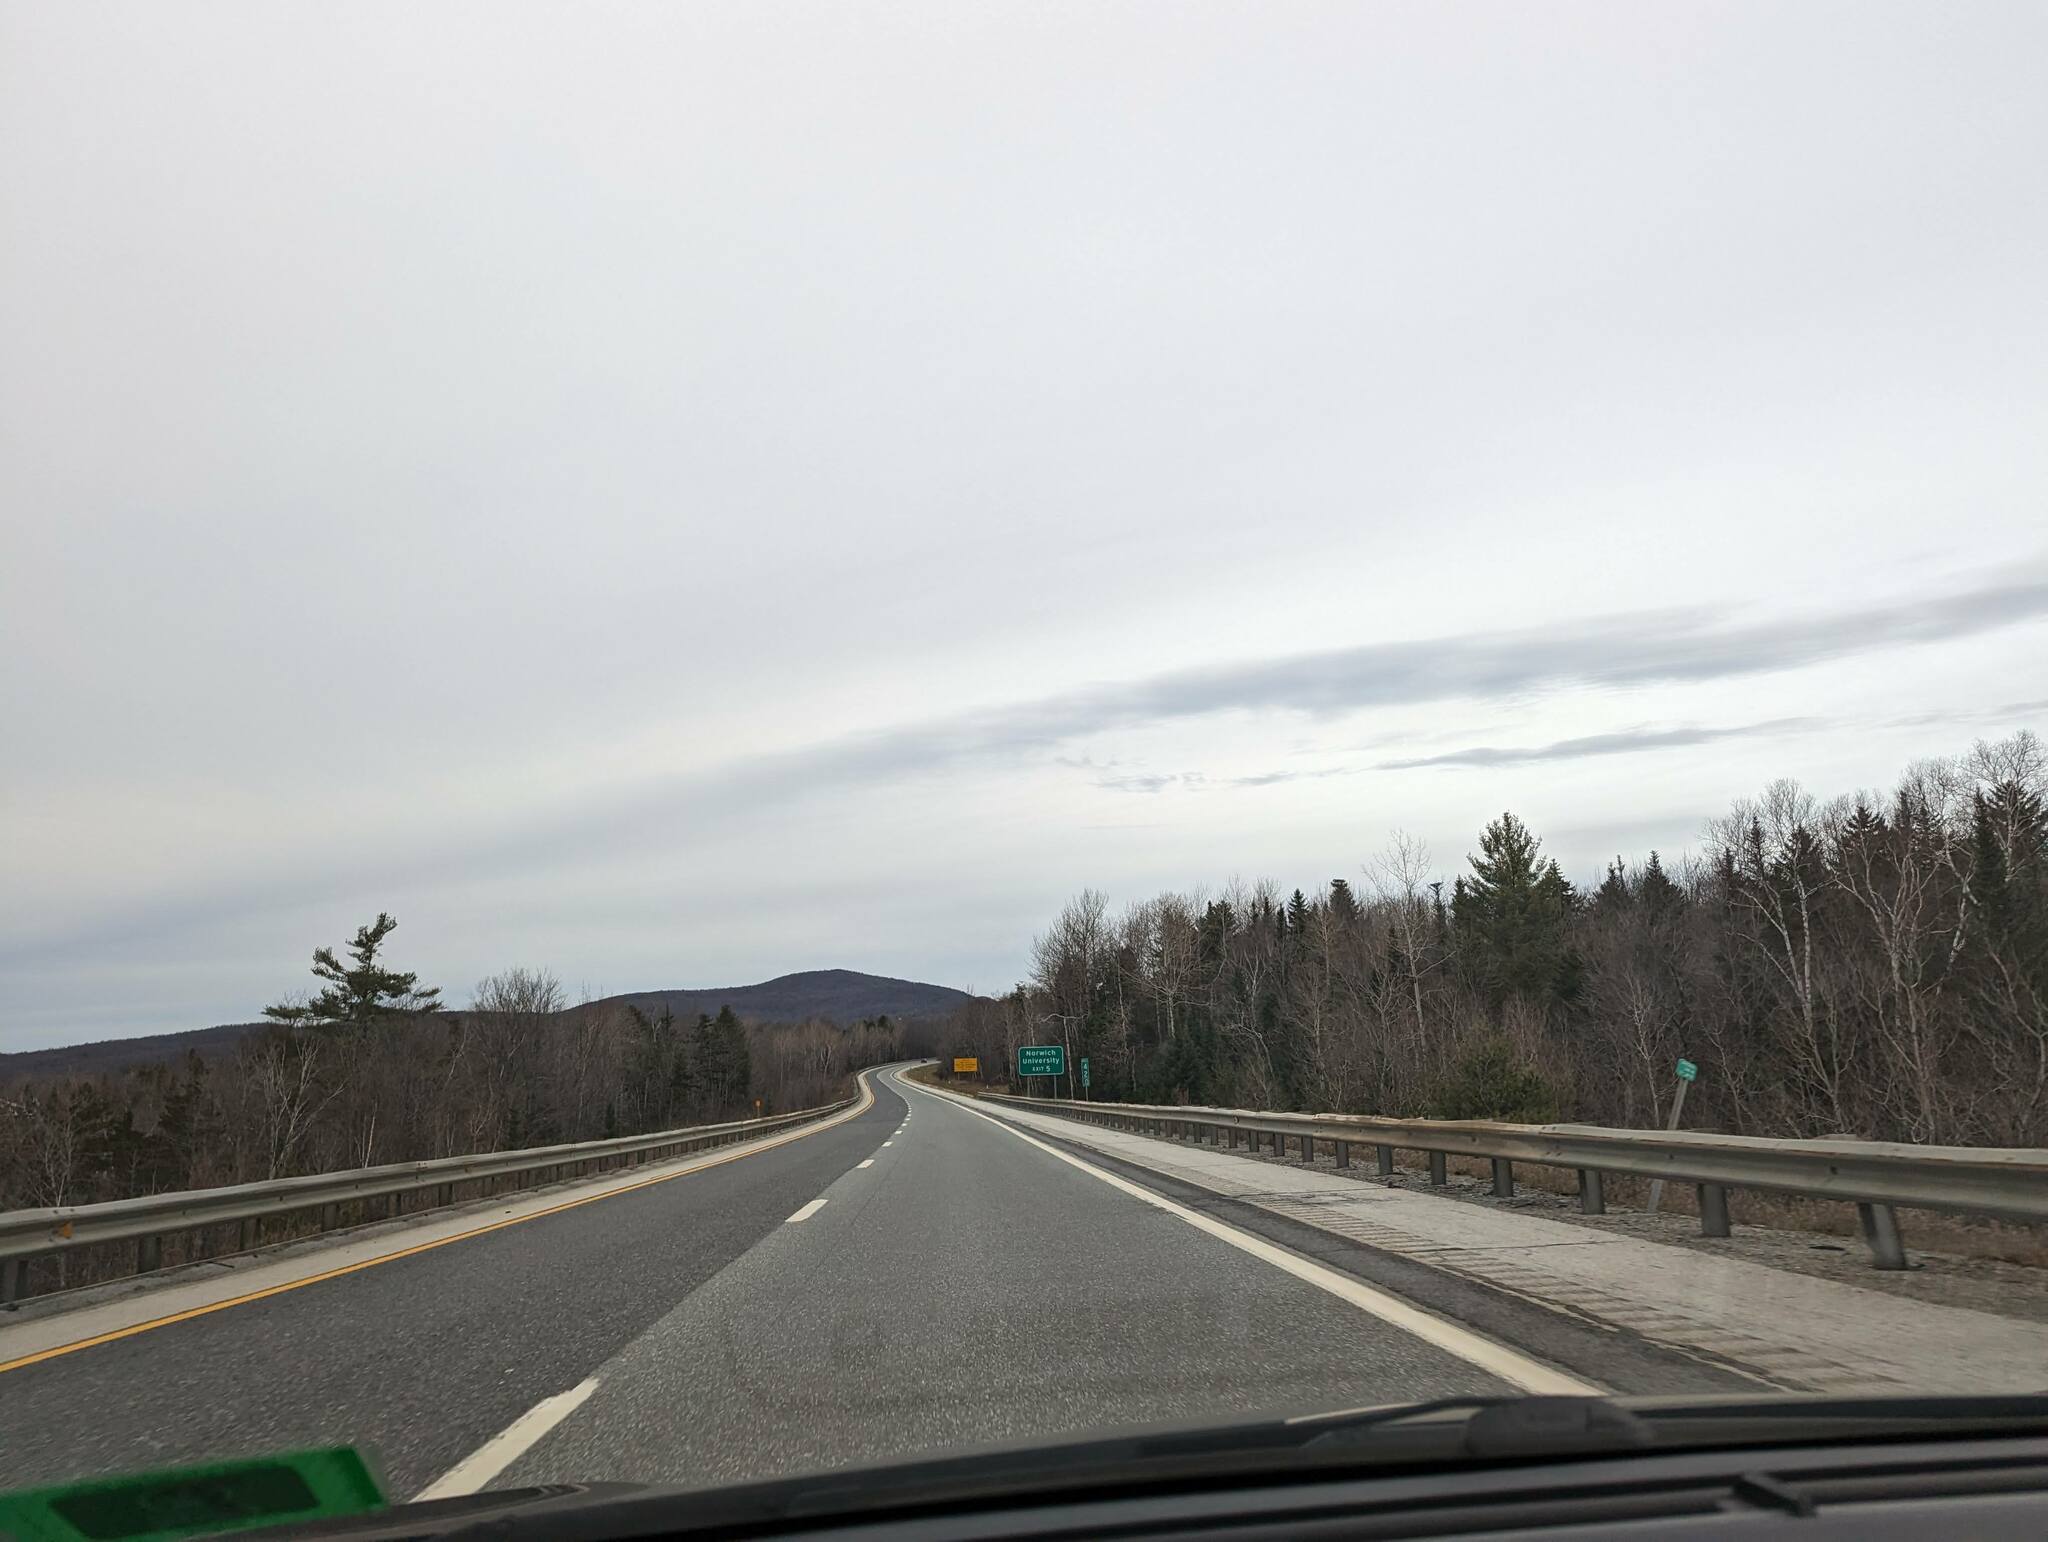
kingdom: Plantae
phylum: Tracheophyta
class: Pinopsida
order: Pinales
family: Pinaceae
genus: Pinus
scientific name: Pinus strobus
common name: Weymouth pine
